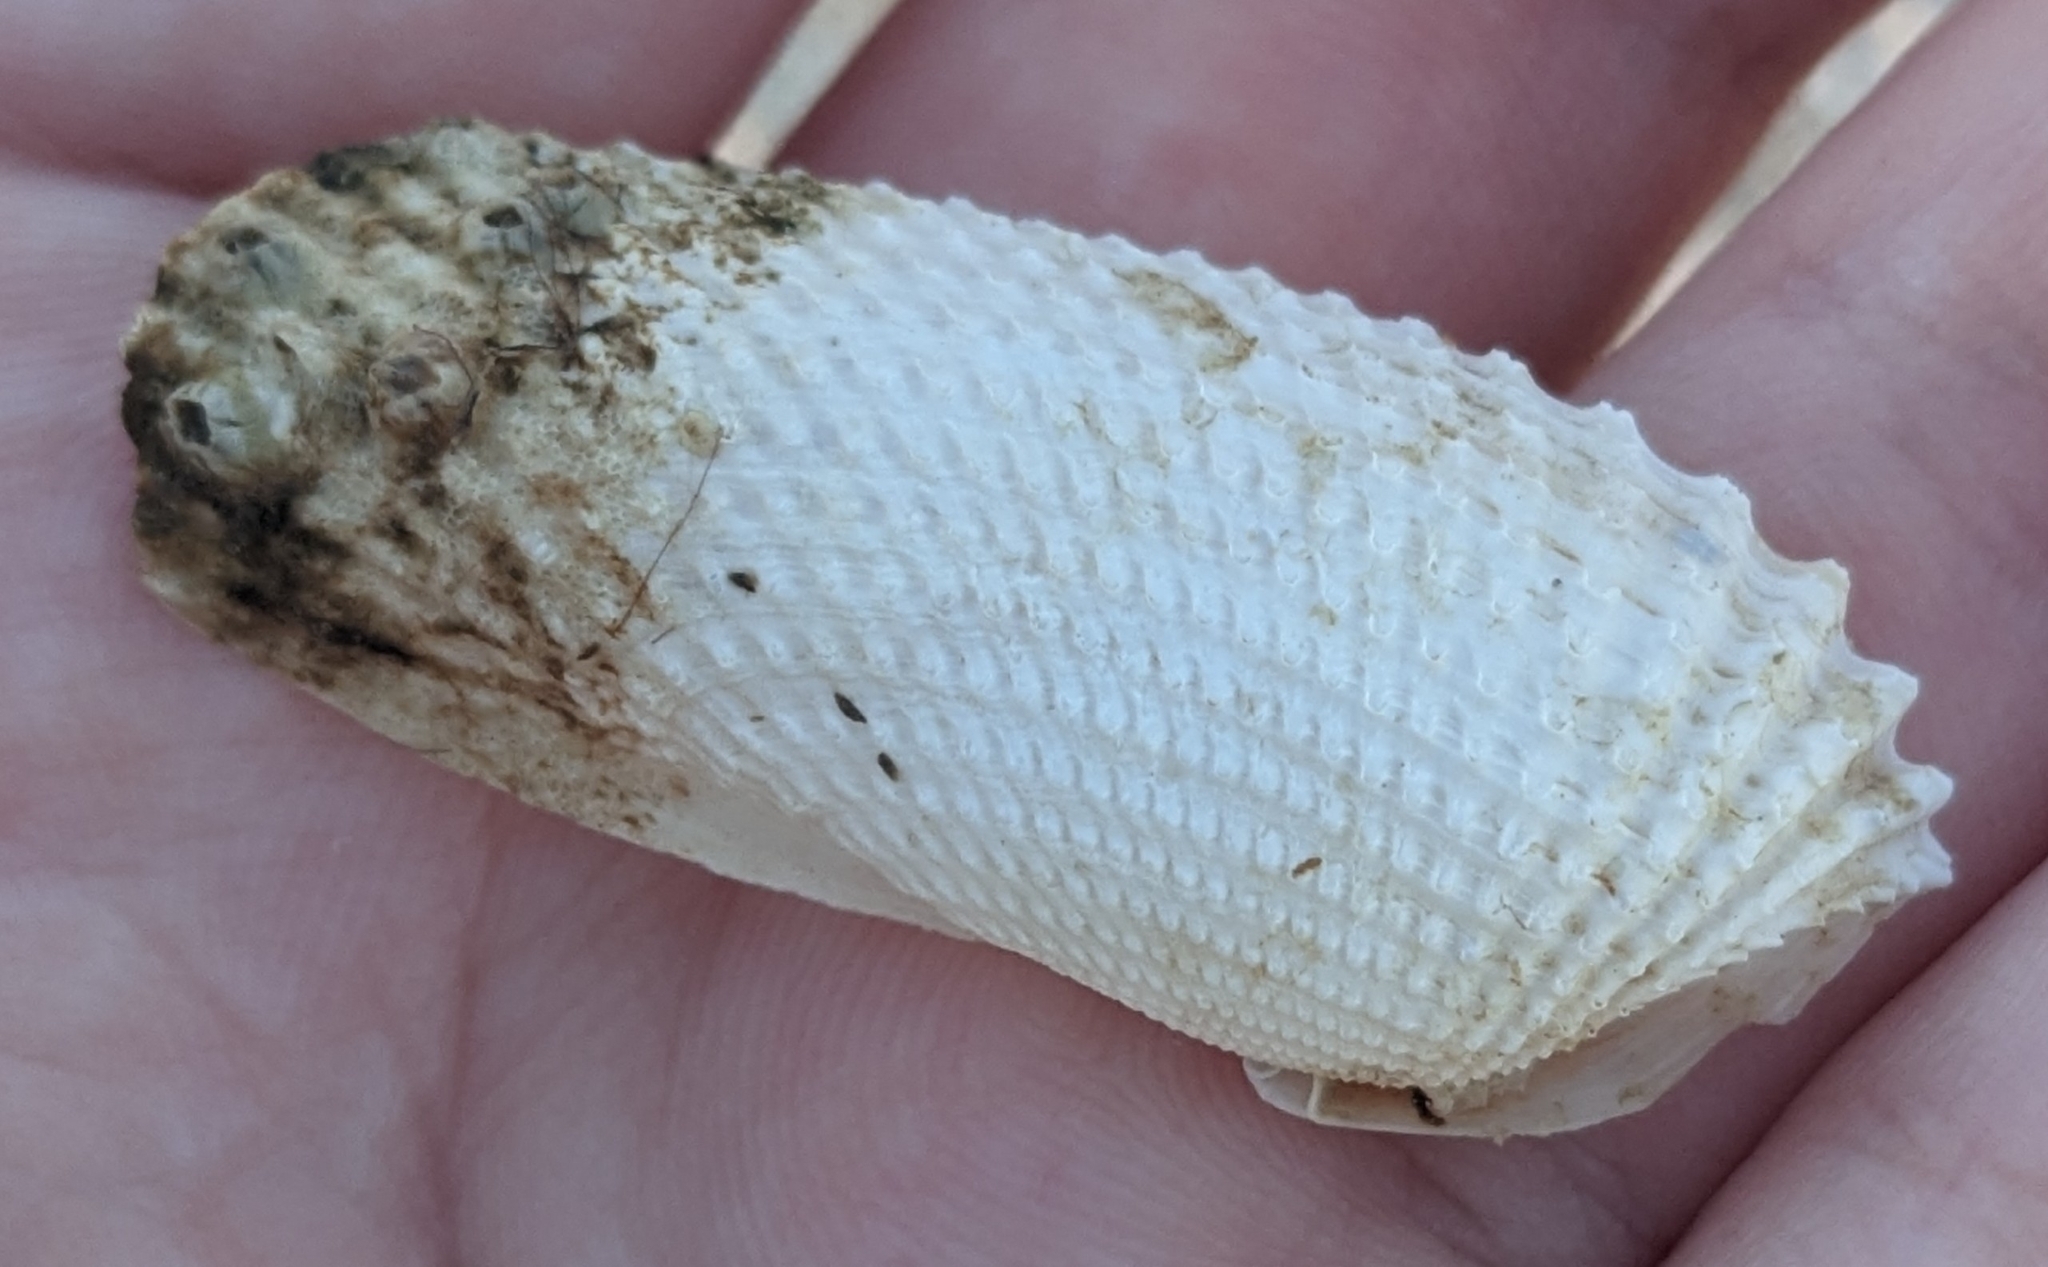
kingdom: Animalia
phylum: Mollusca
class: Bivalvia
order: Myida
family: Pholadidae
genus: Cyrtopleura
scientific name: Cyrtopleura costata
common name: Angel wing
